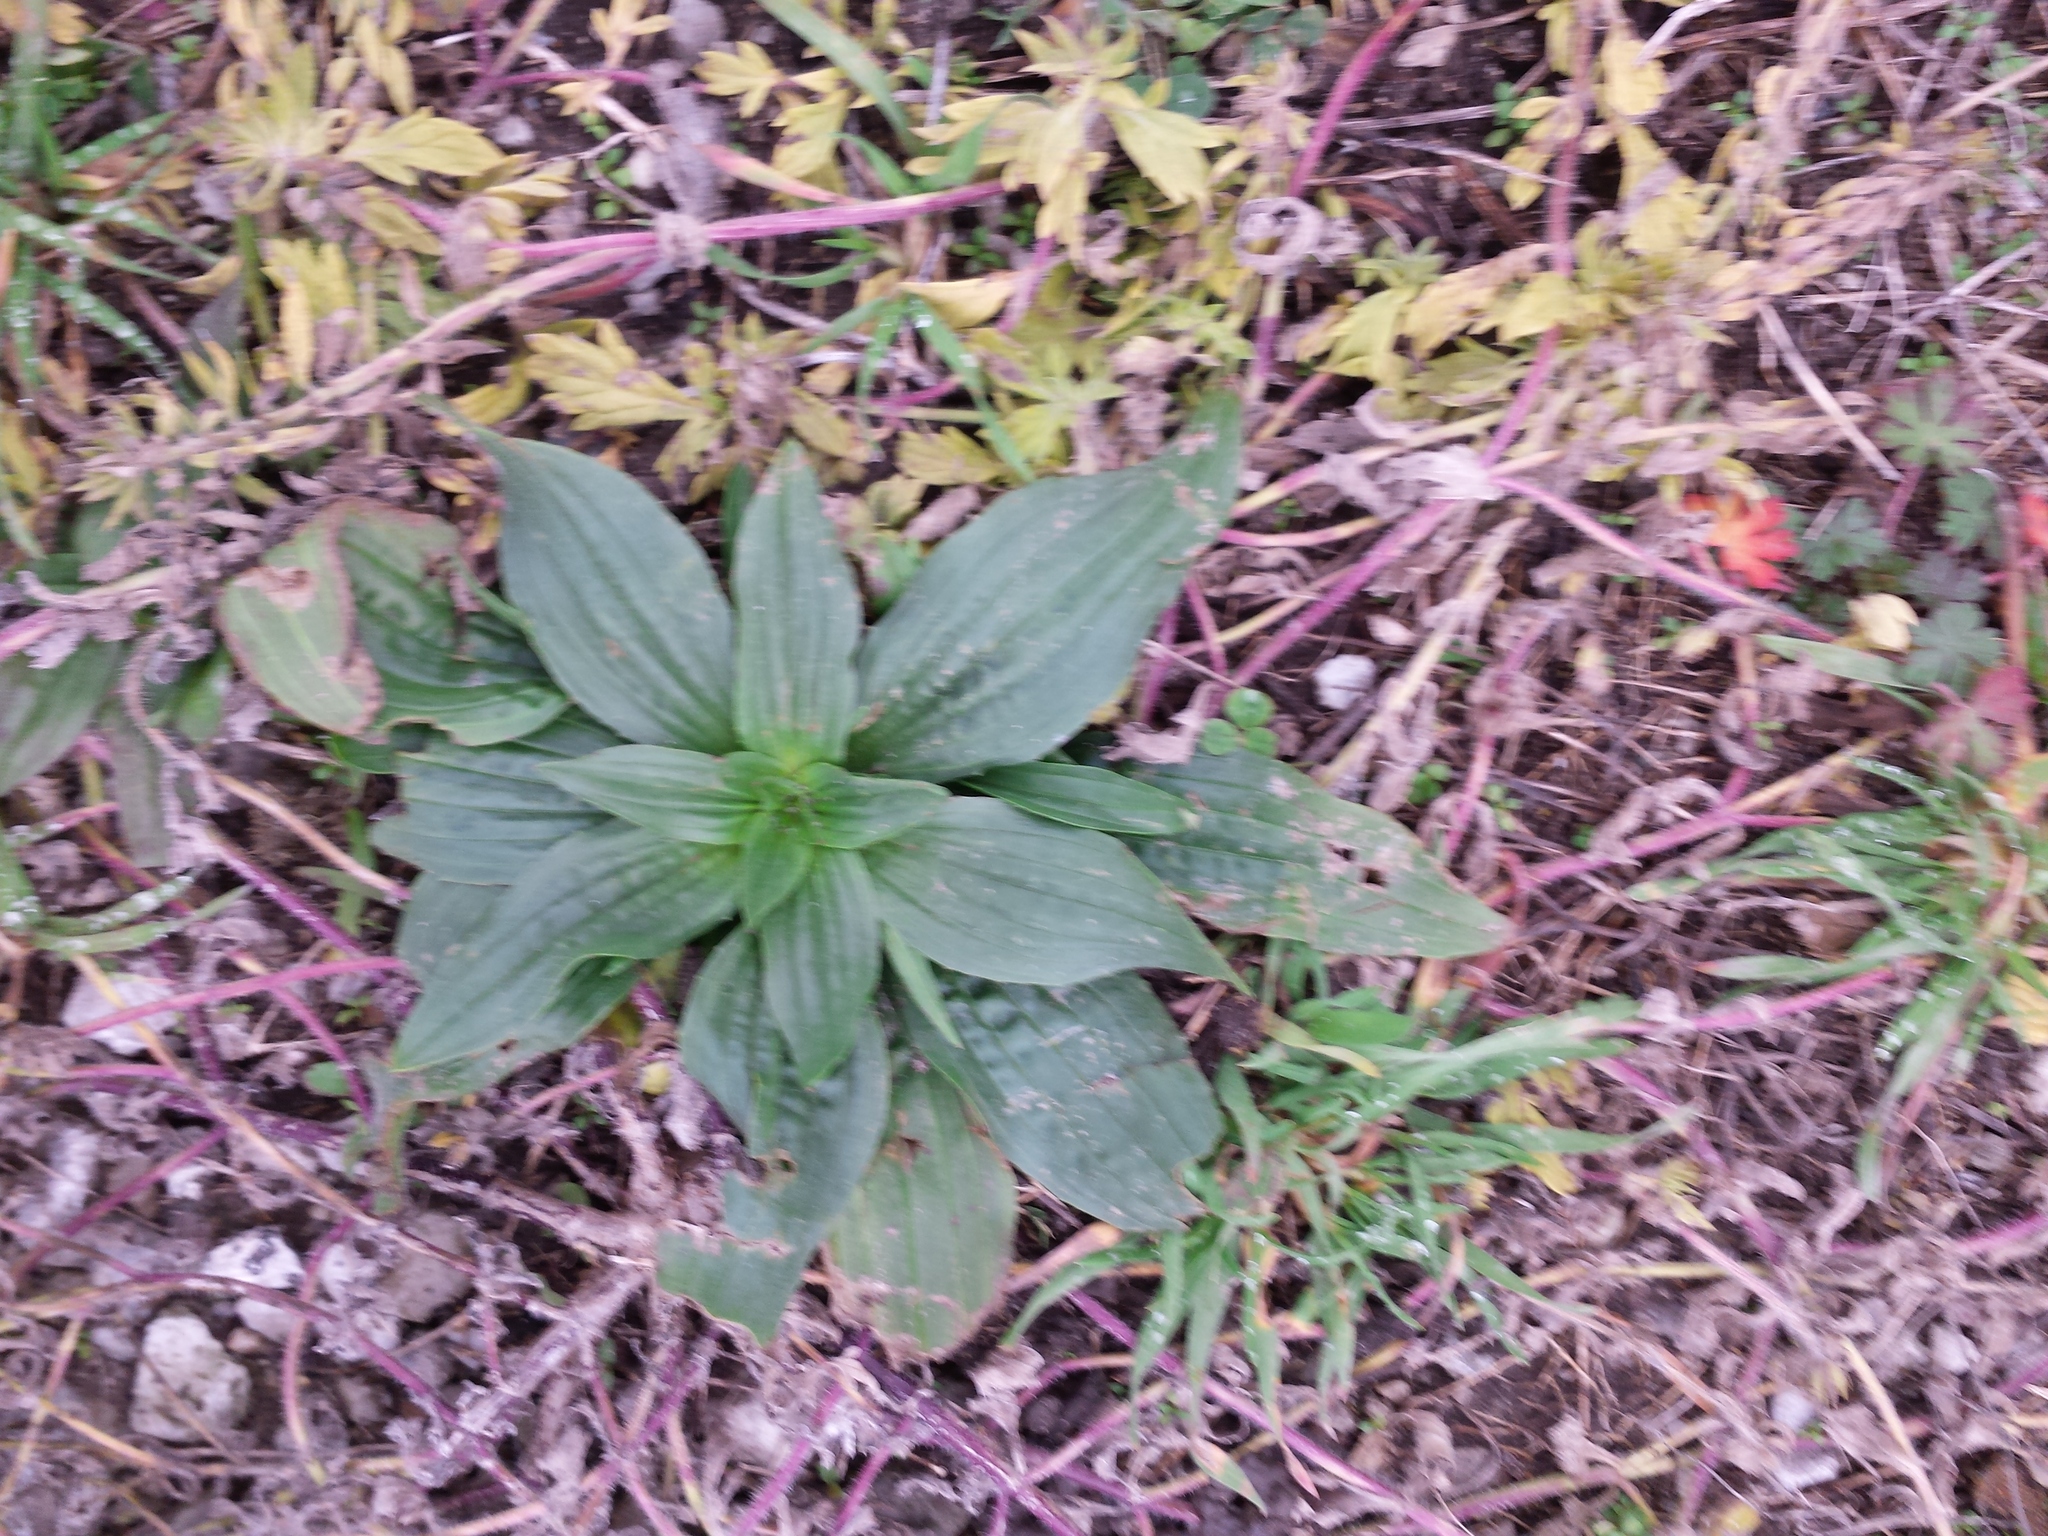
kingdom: Plantae
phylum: Tracheophyta
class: Magnoliopsida
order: Lamiales
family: Plantaginaceae
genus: Plantago
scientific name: Plantago lanceolata
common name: Ribwort plantain
